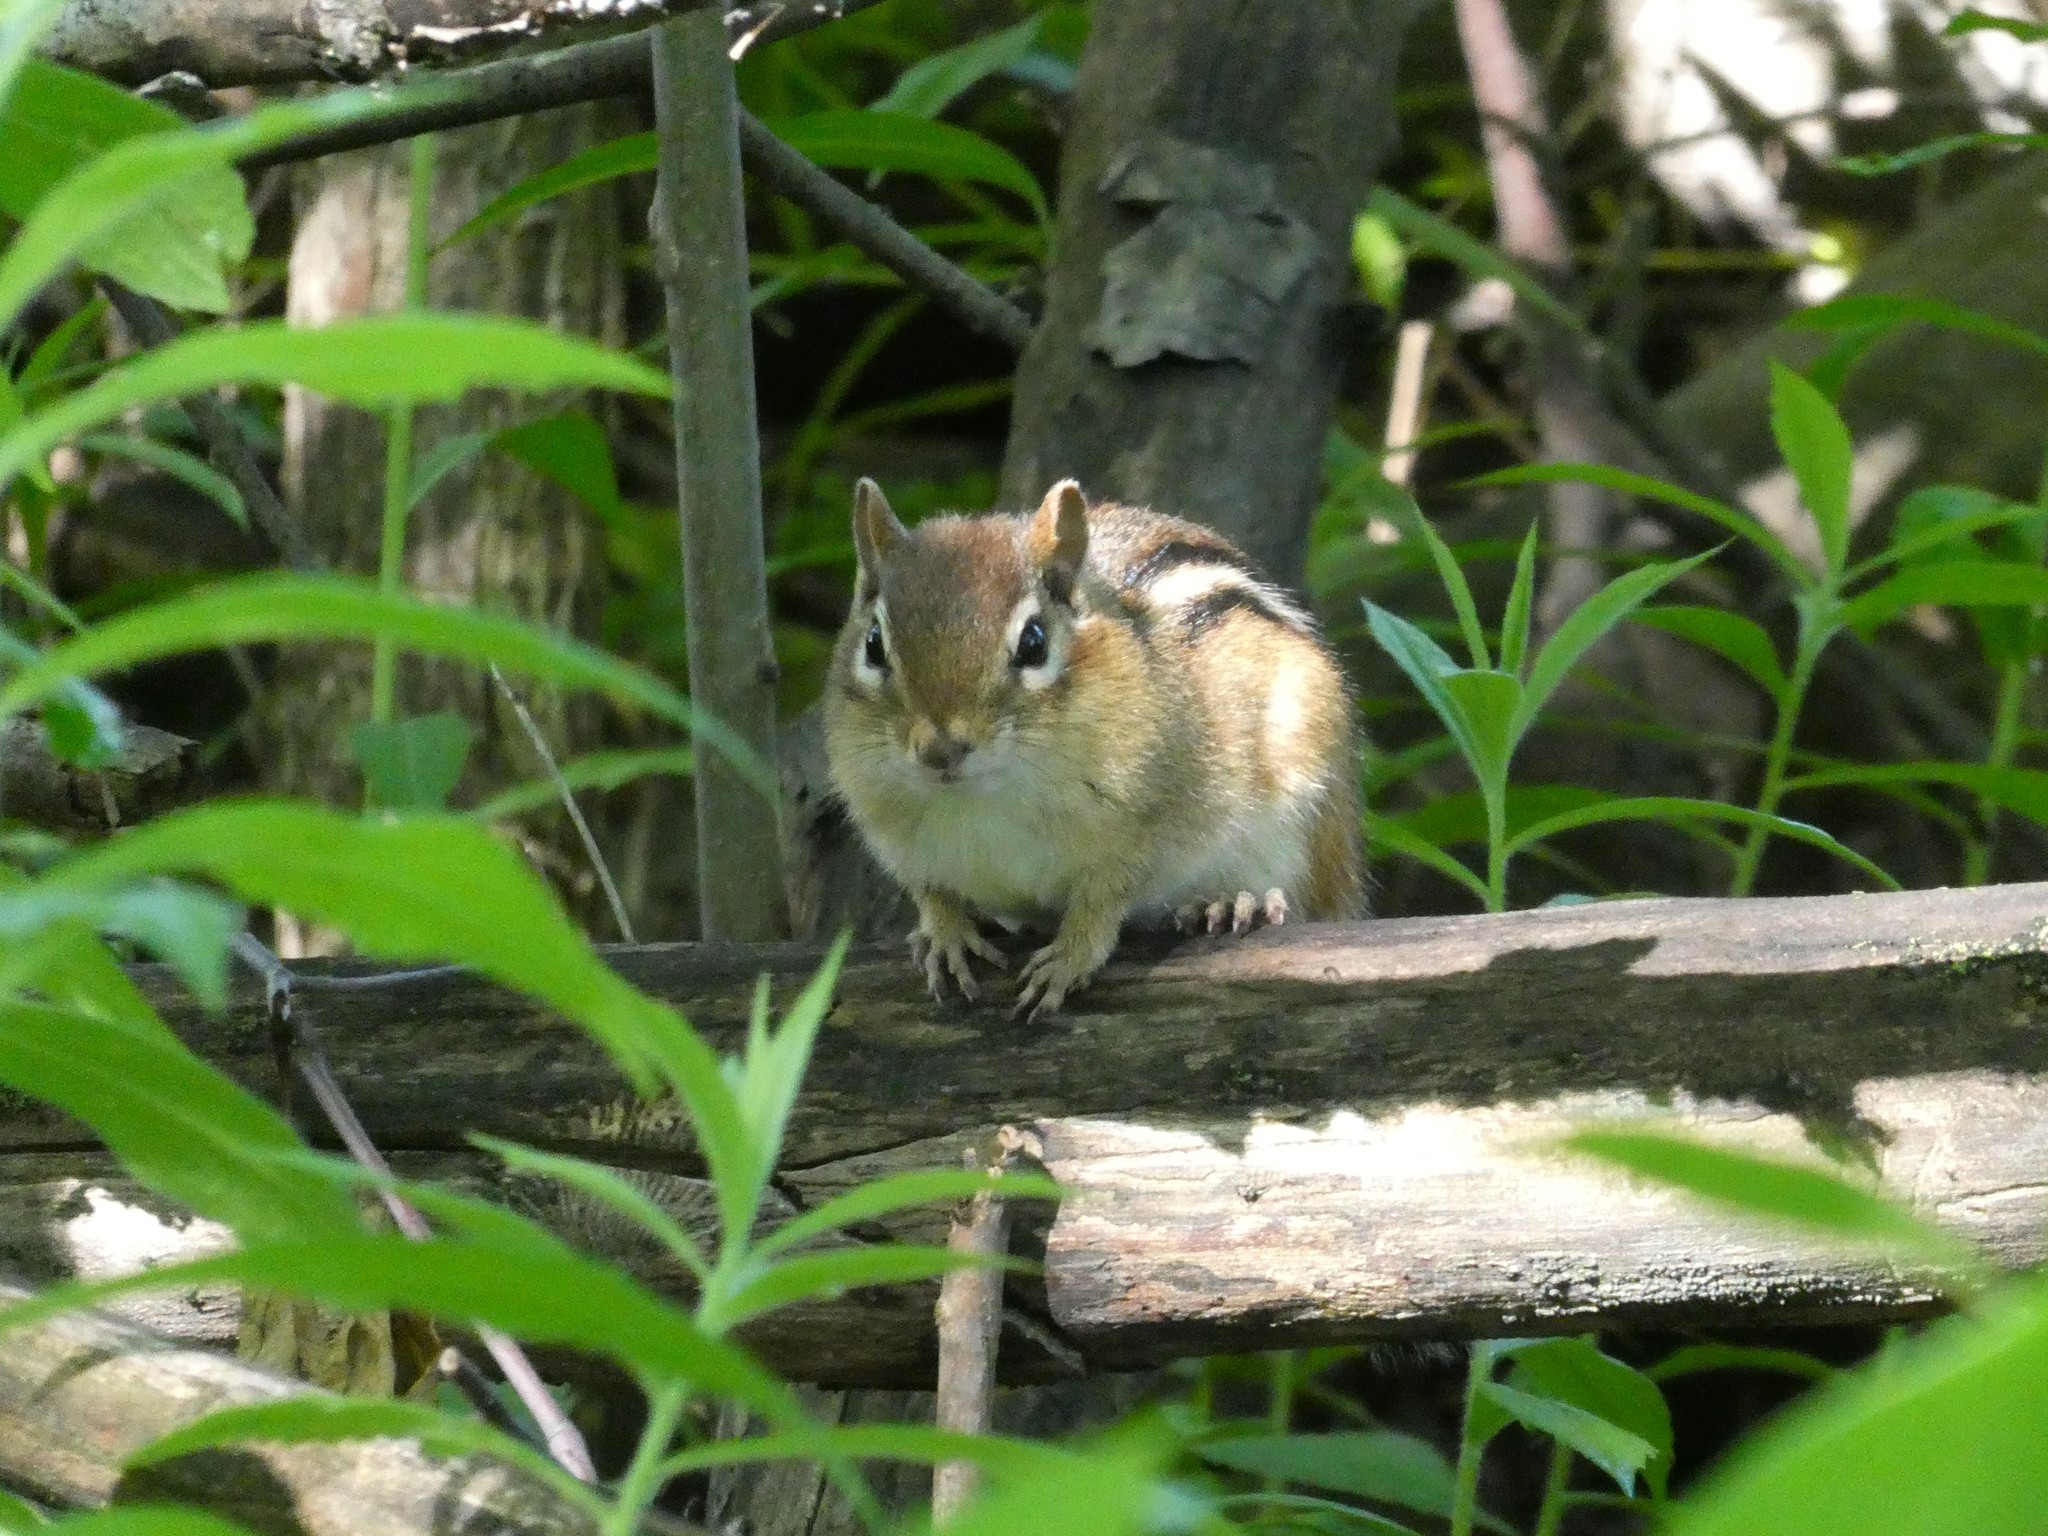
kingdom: Animalia
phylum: Chordata
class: Mammalia
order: Rodentia
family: Sciuridae
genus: Tamias
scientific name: Tamias striatus
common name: Eastern chipmunk
